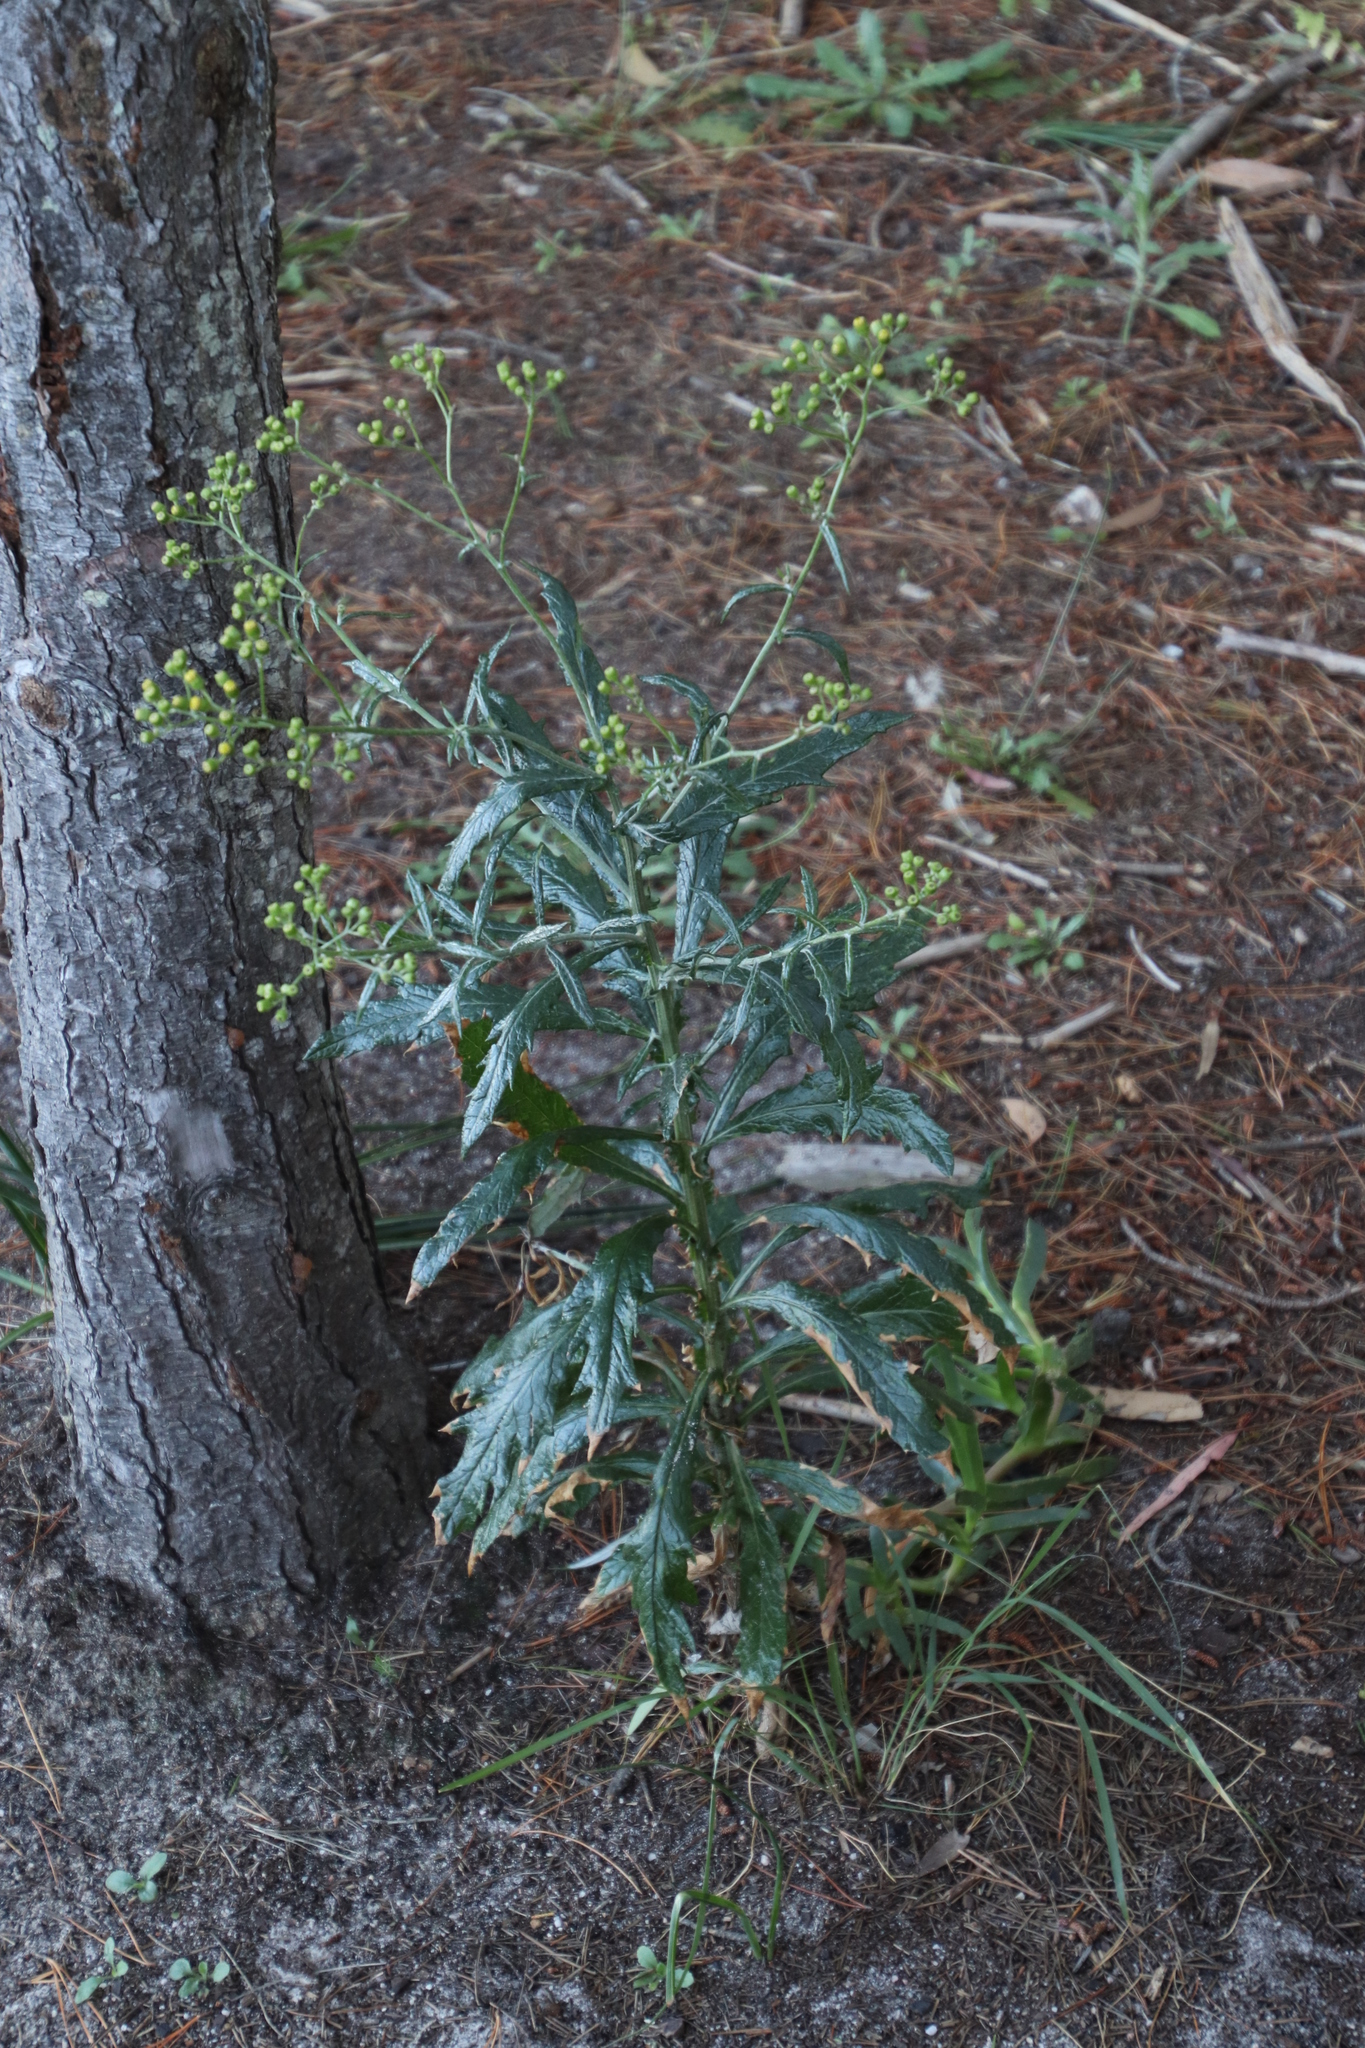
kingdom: Plantae
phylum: Tracheophyta
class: Magnoliopsida
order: Asterales
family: Asteraceae
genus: Senecio
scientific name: Senecio pterophorus
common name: Shoddy ragwort
